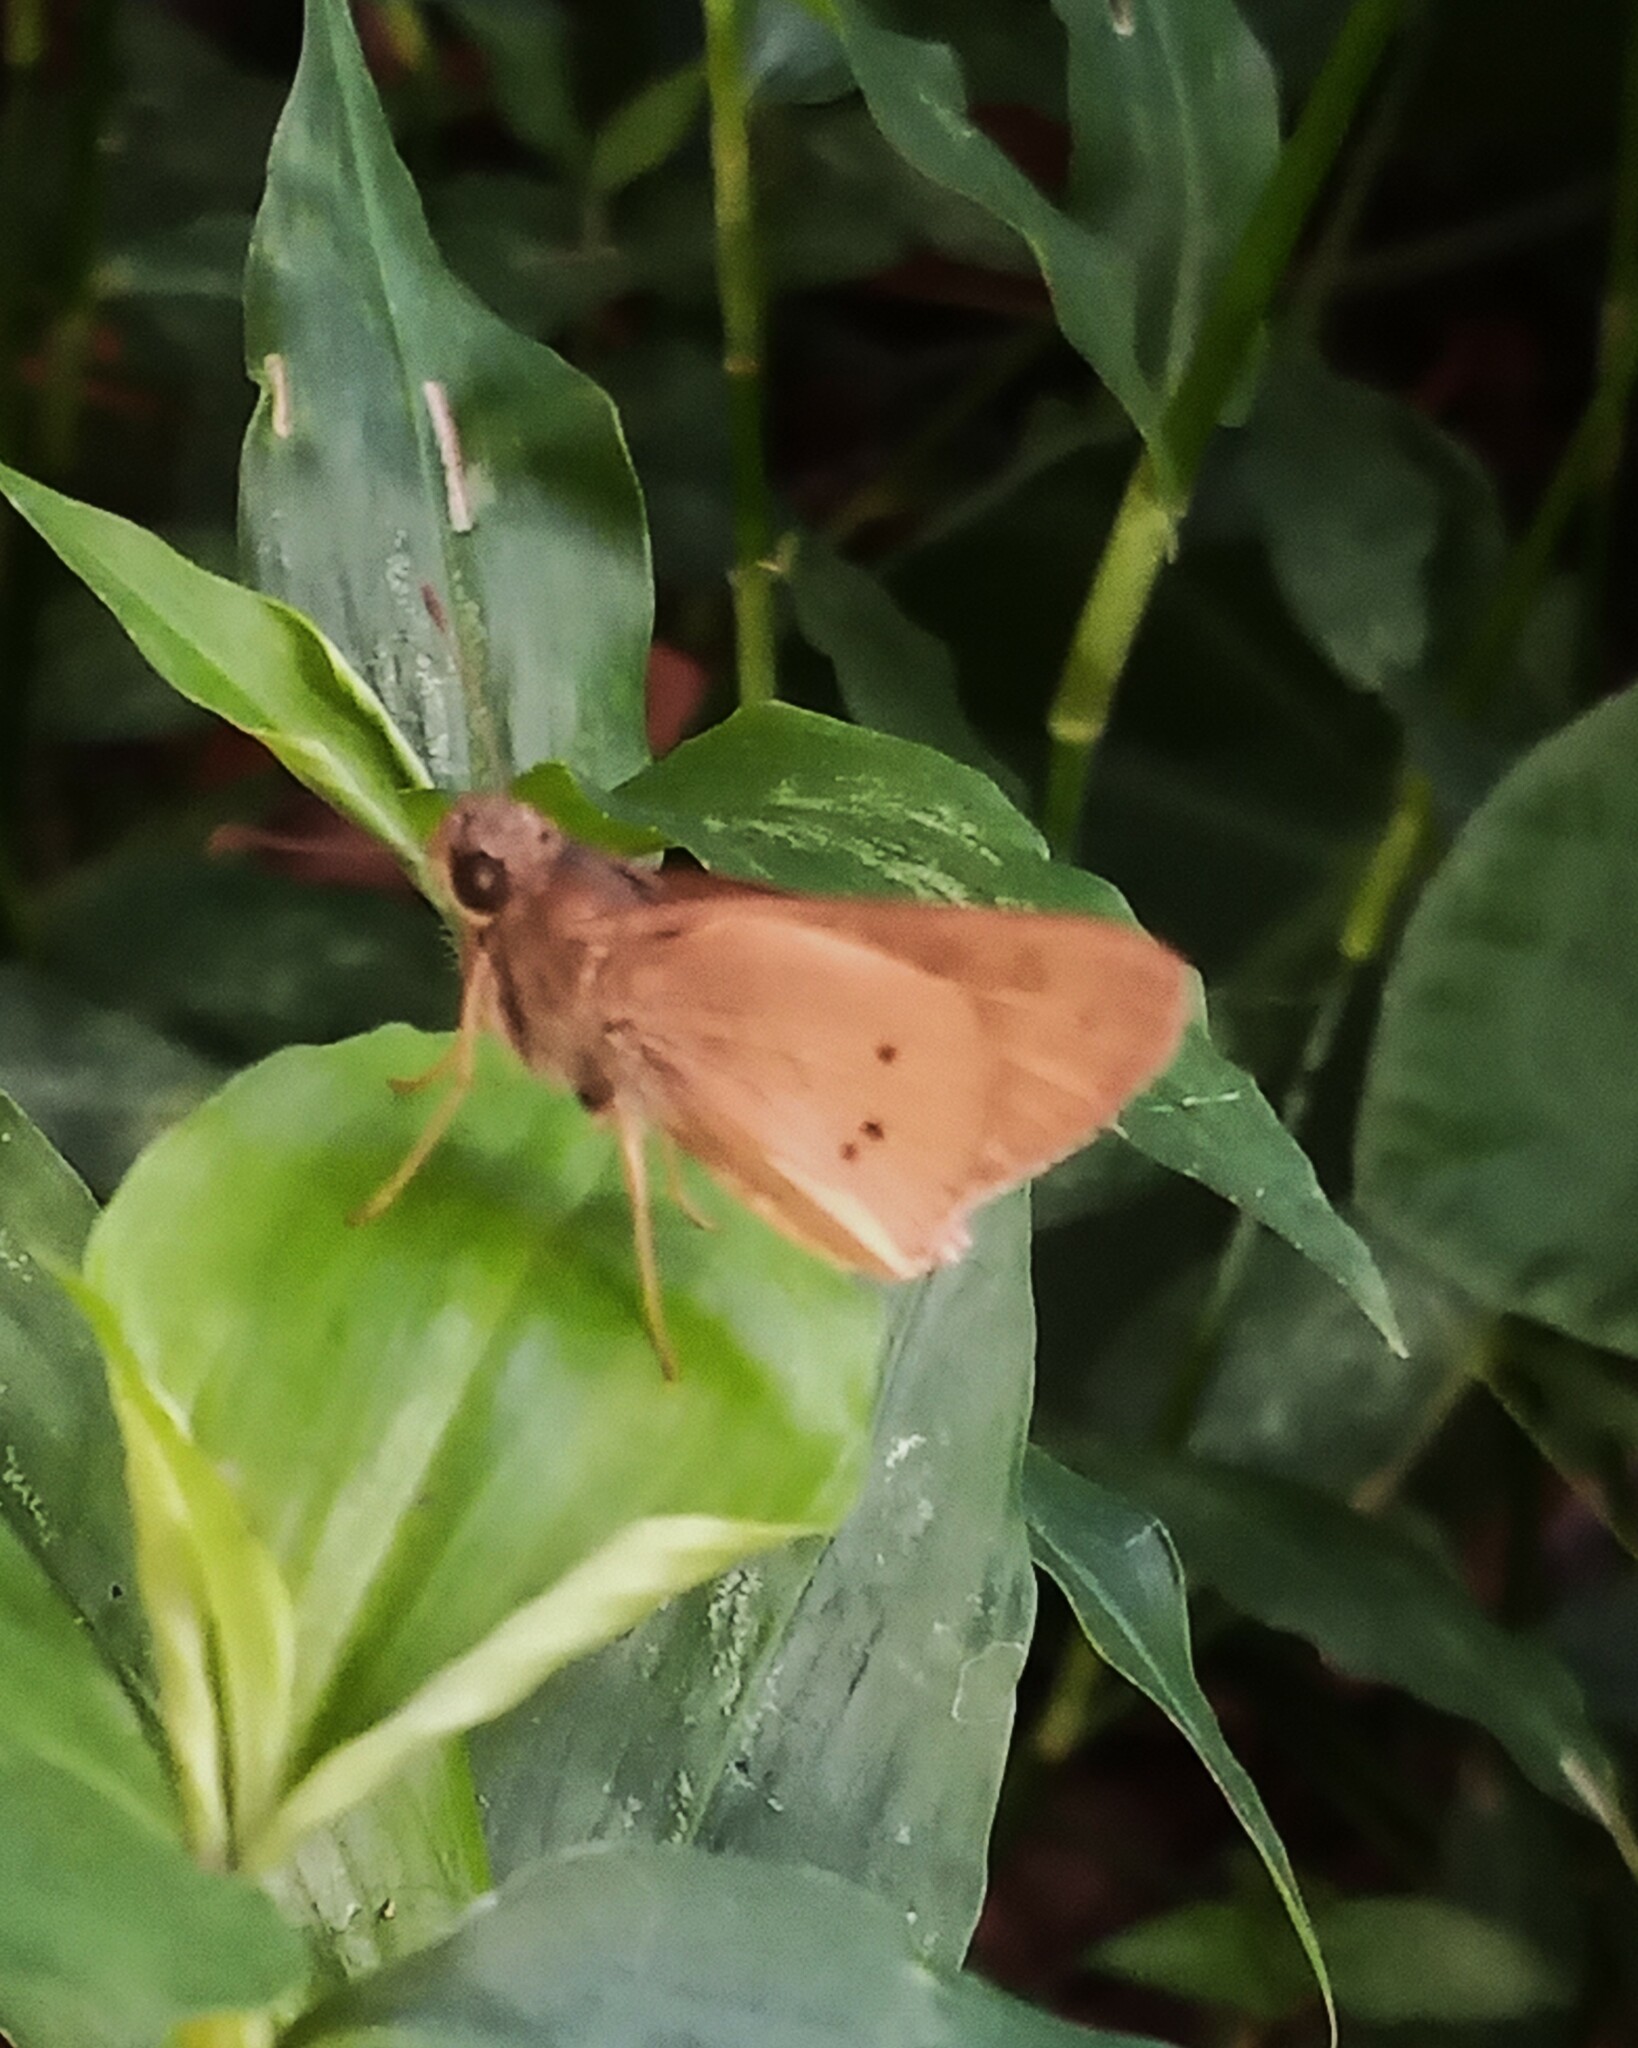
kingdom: Animalia
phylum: Arthropoda
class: Insecta
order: Lepidoptera
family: Hesperiidae
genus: Mucia
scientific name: Mucia zygia
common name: Black-dotted skipper
